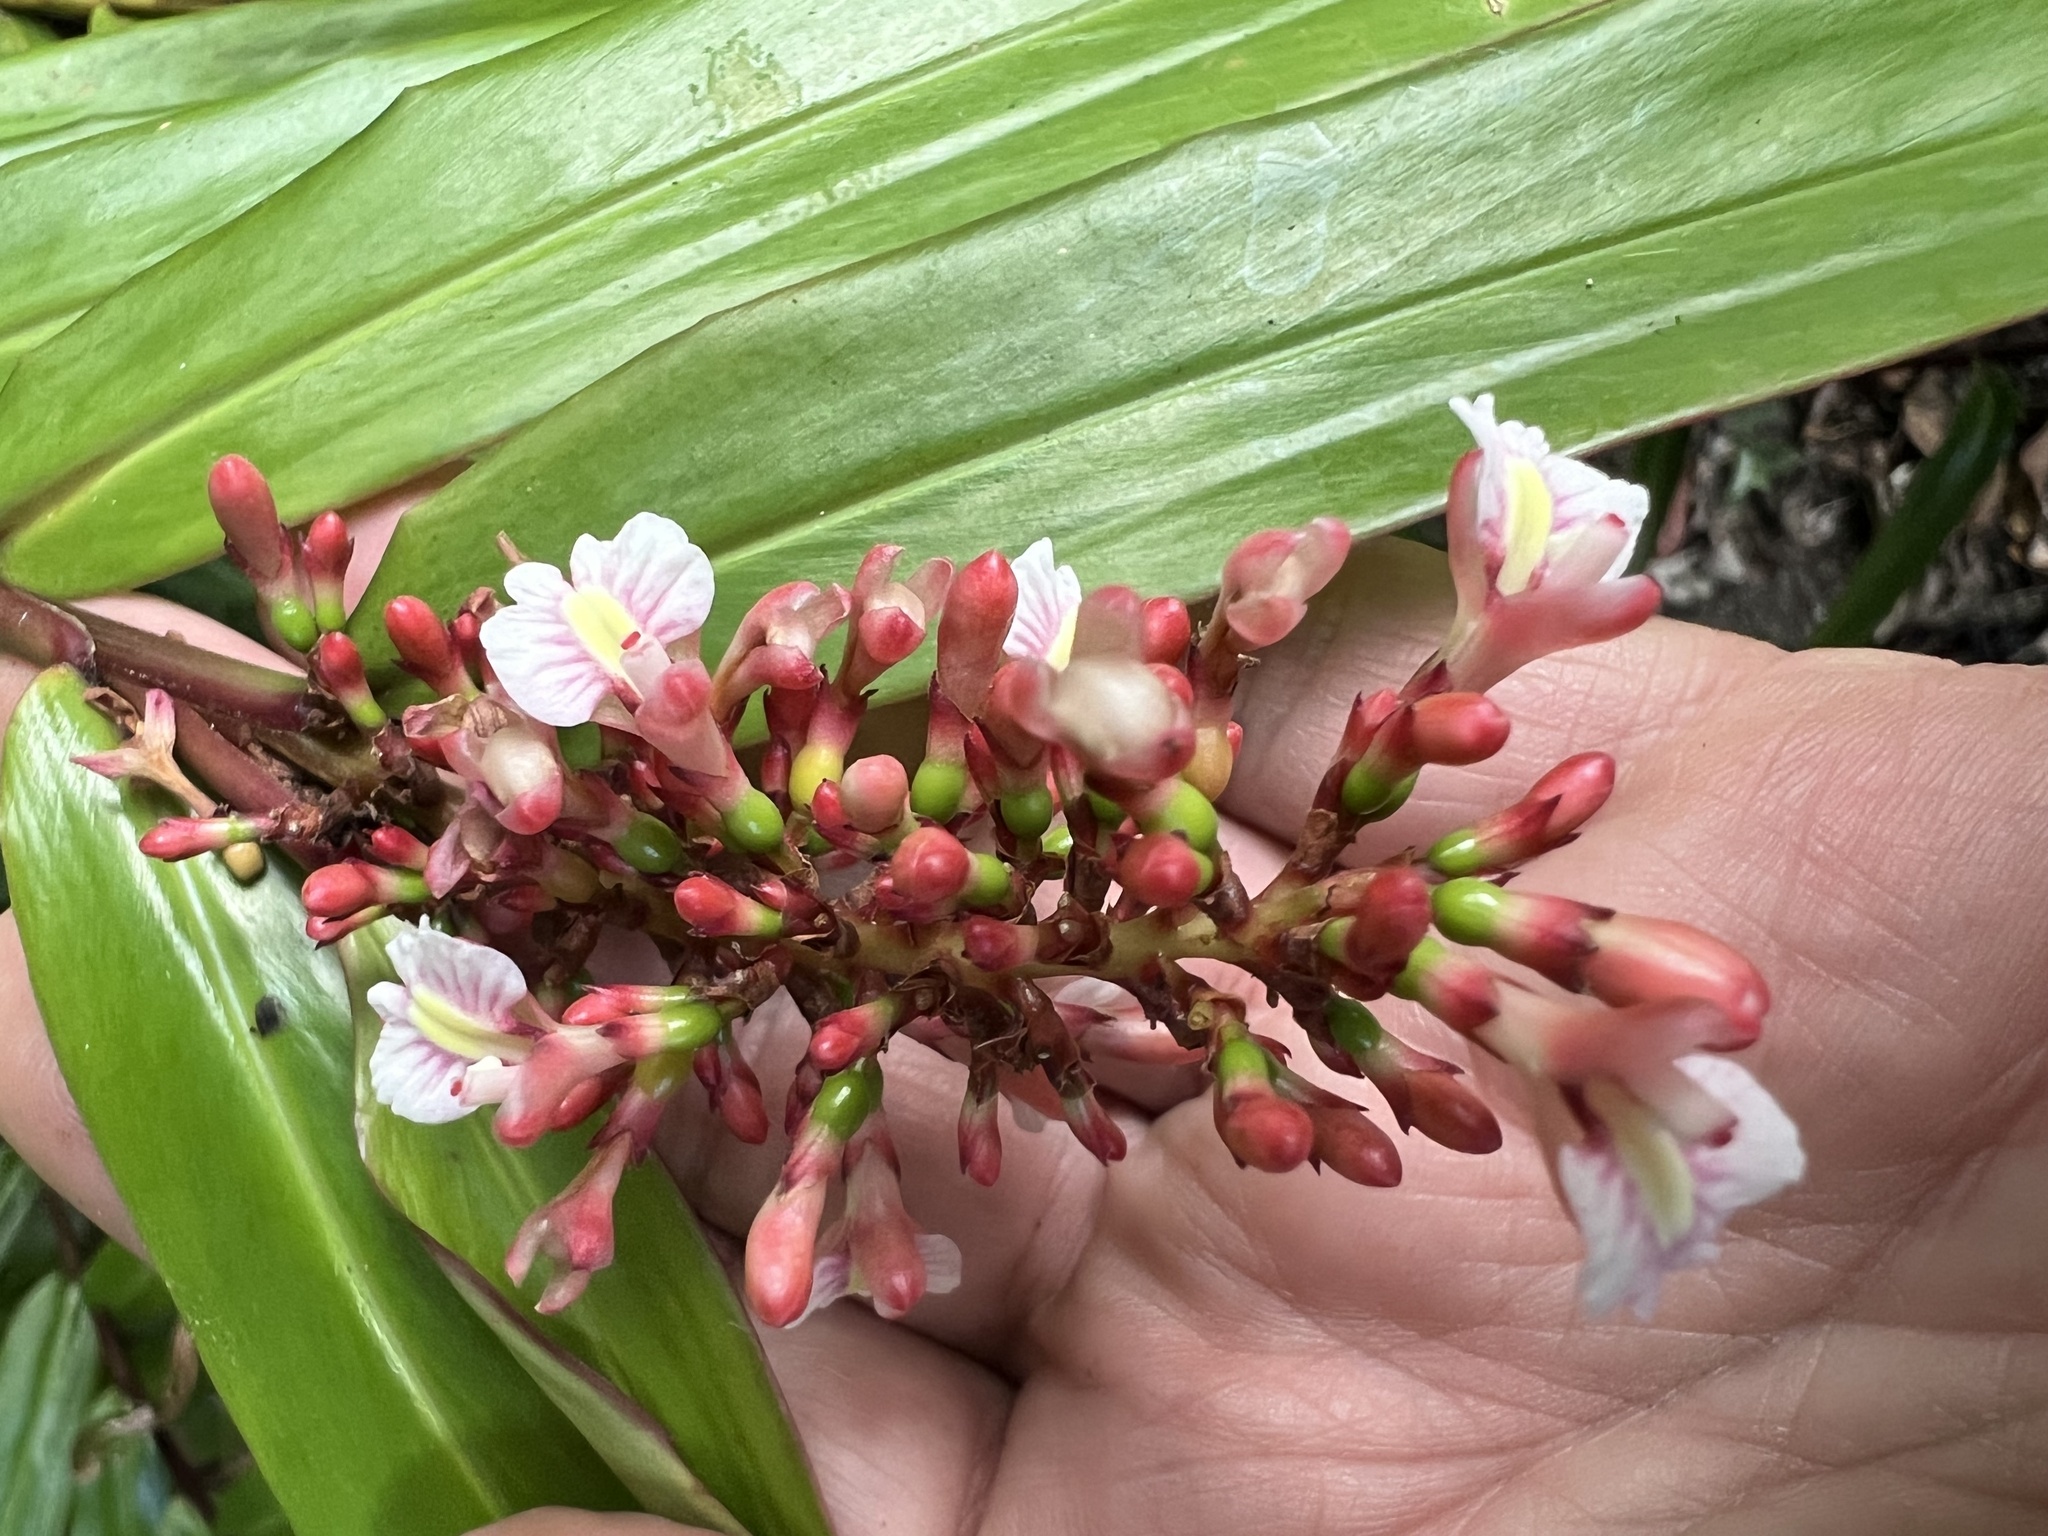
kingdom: Plantae
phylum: Tracheophyta
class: Liliopsida
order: Zingiberales
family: Zingiberaceae
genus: Alpinia
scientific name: Alpinia caerulea
